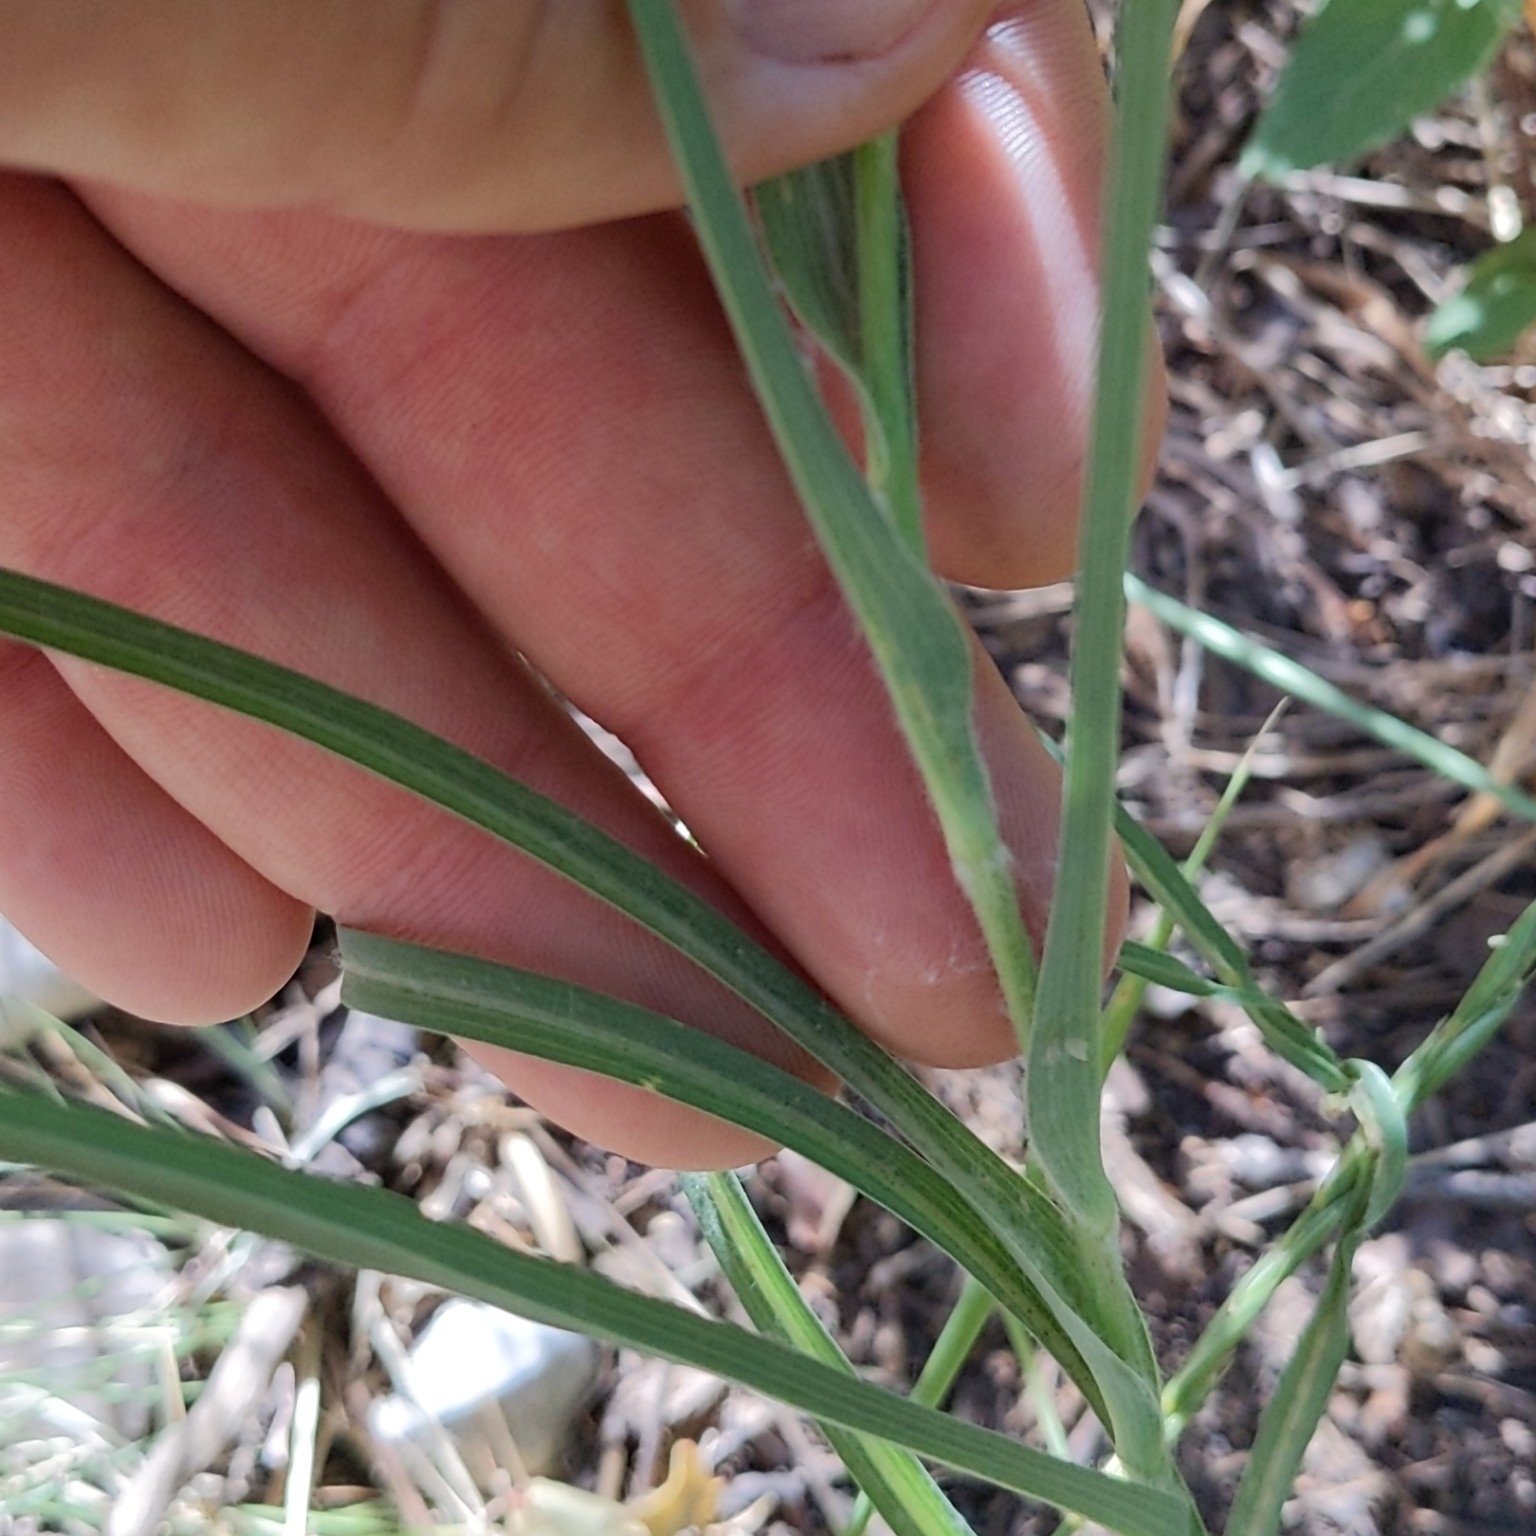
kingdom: Plantae
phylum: Tracheophyta
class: Magnoliopsida
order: Asterales
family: Asteraceae
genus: Tragopogon
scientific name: Tragopogon dubius
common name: Yellow salsify
